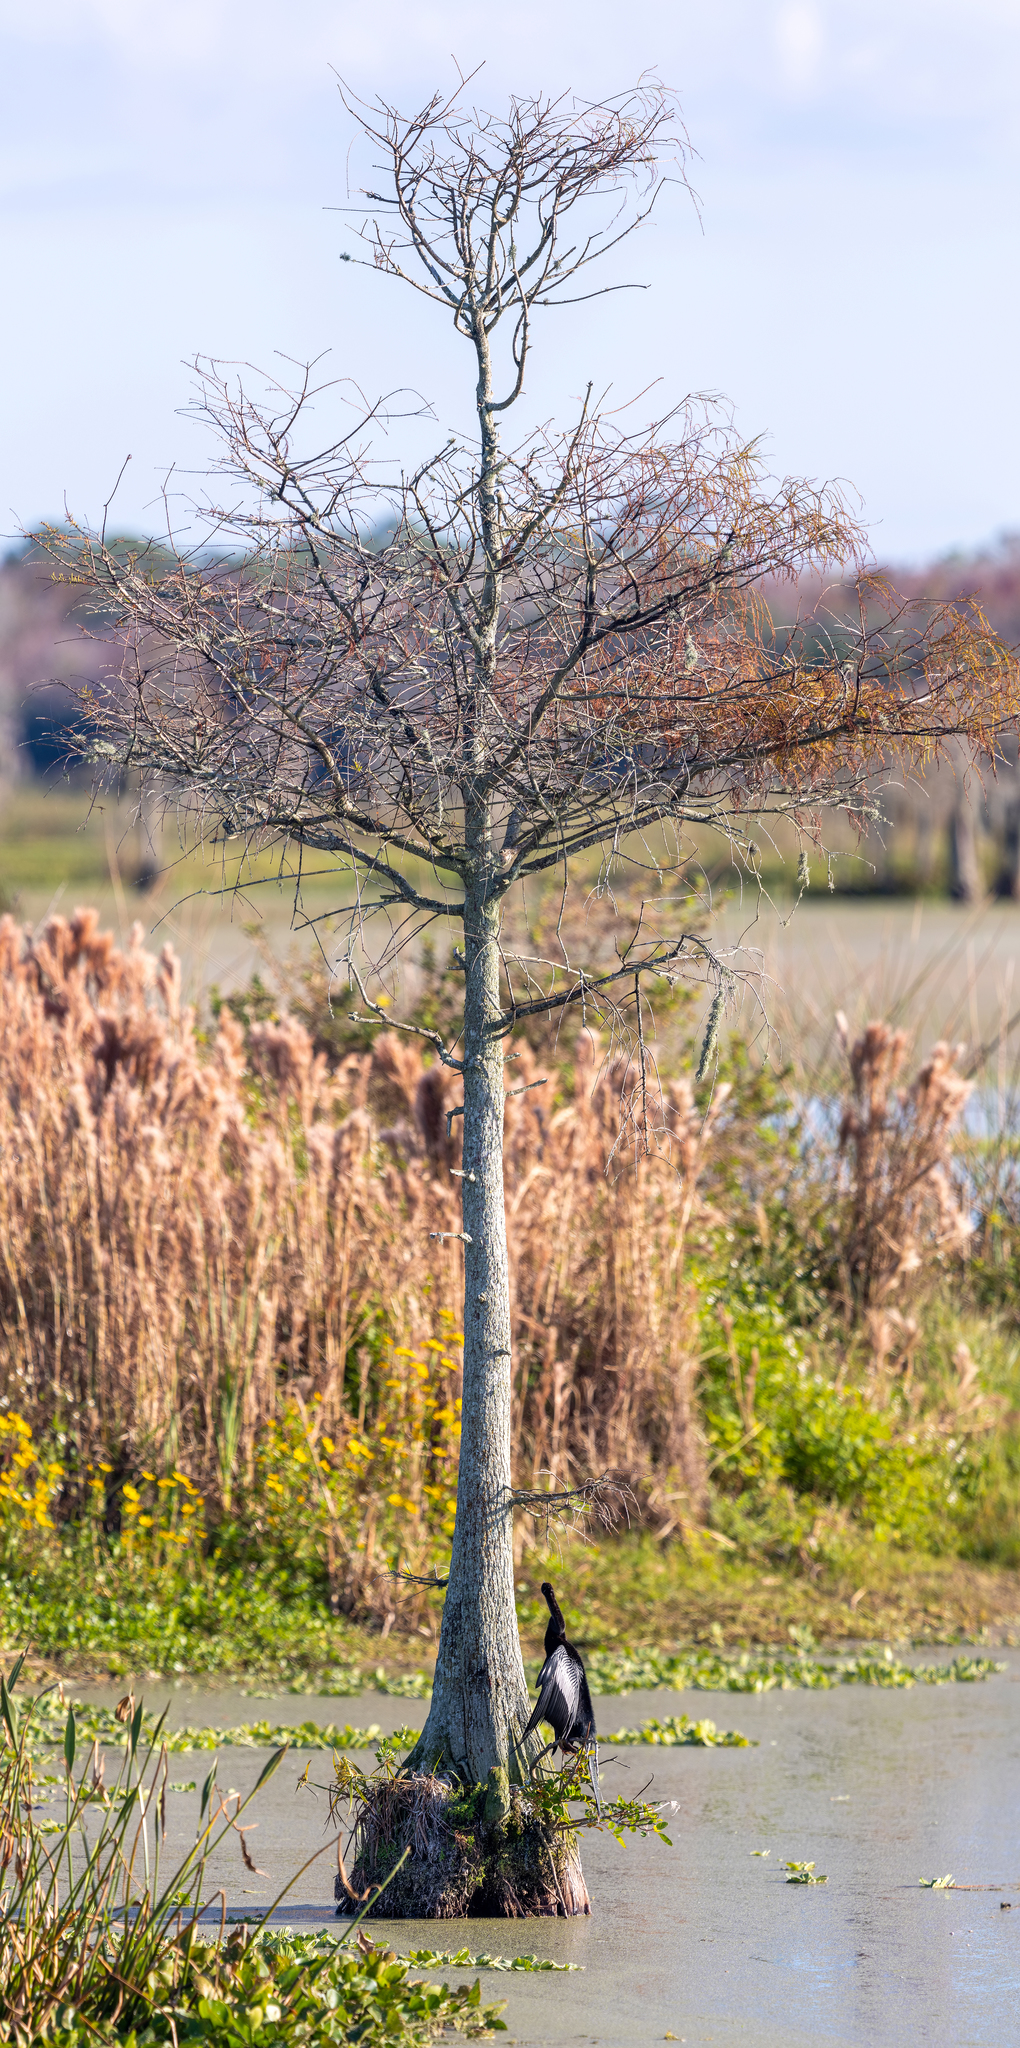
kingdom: Animalia
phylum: Chordata
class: Aves
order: Suliformes
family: Anhingidae
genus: Anhinga
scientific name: Anhinga anhinga
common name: Anhinga
